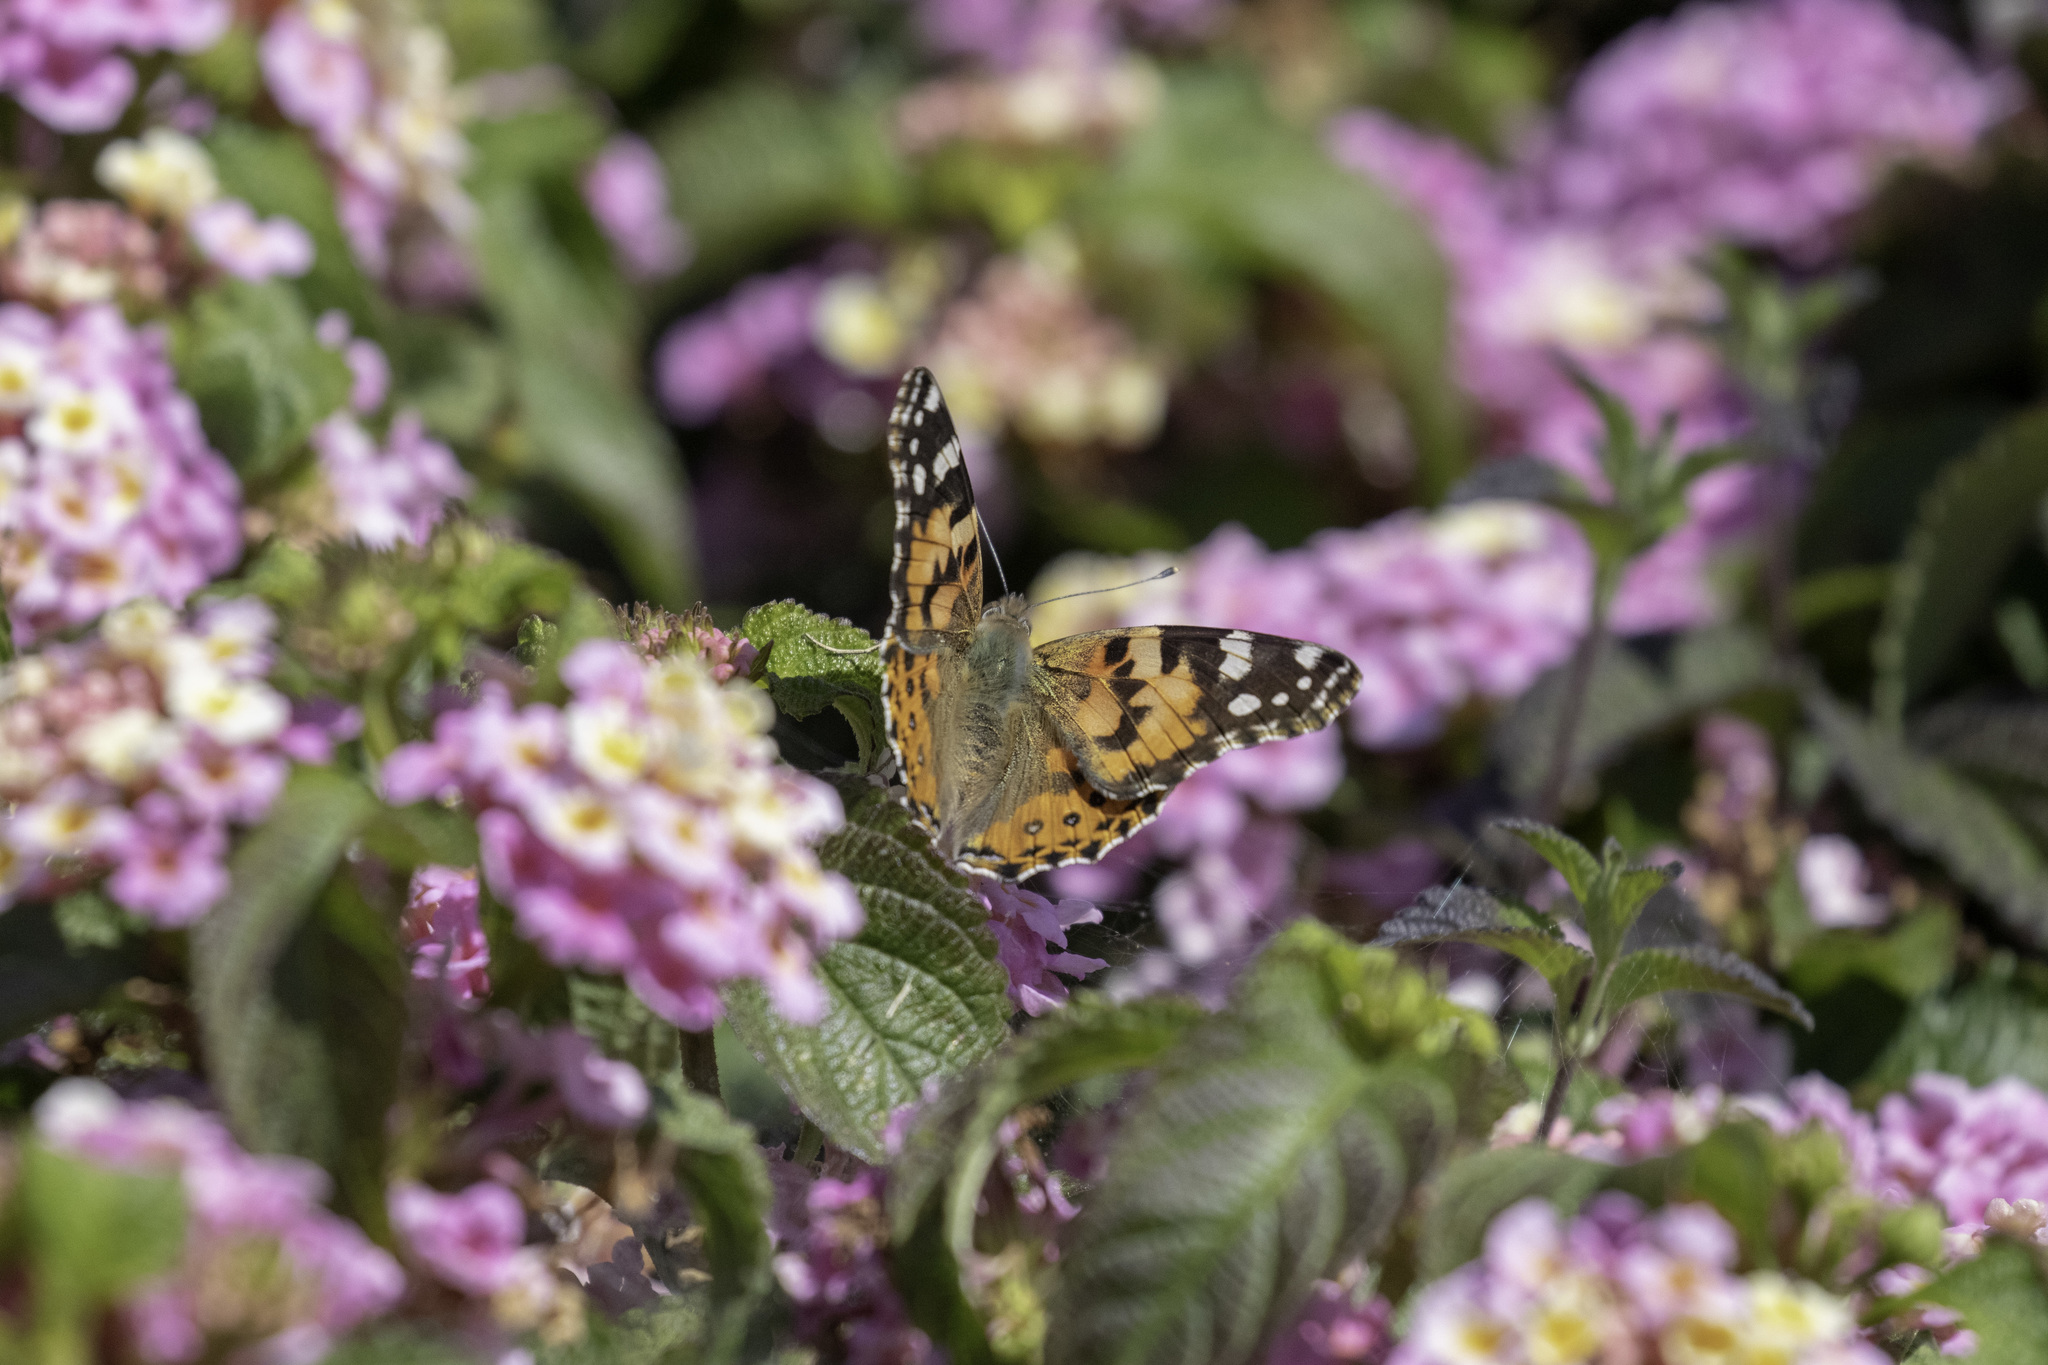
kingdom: Animalia
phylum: Arthropoda
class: Insecta
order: Lepidoptera
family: Nymphalidae
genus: Vanessa
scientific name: Vanessa cardui
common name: Painted lady
